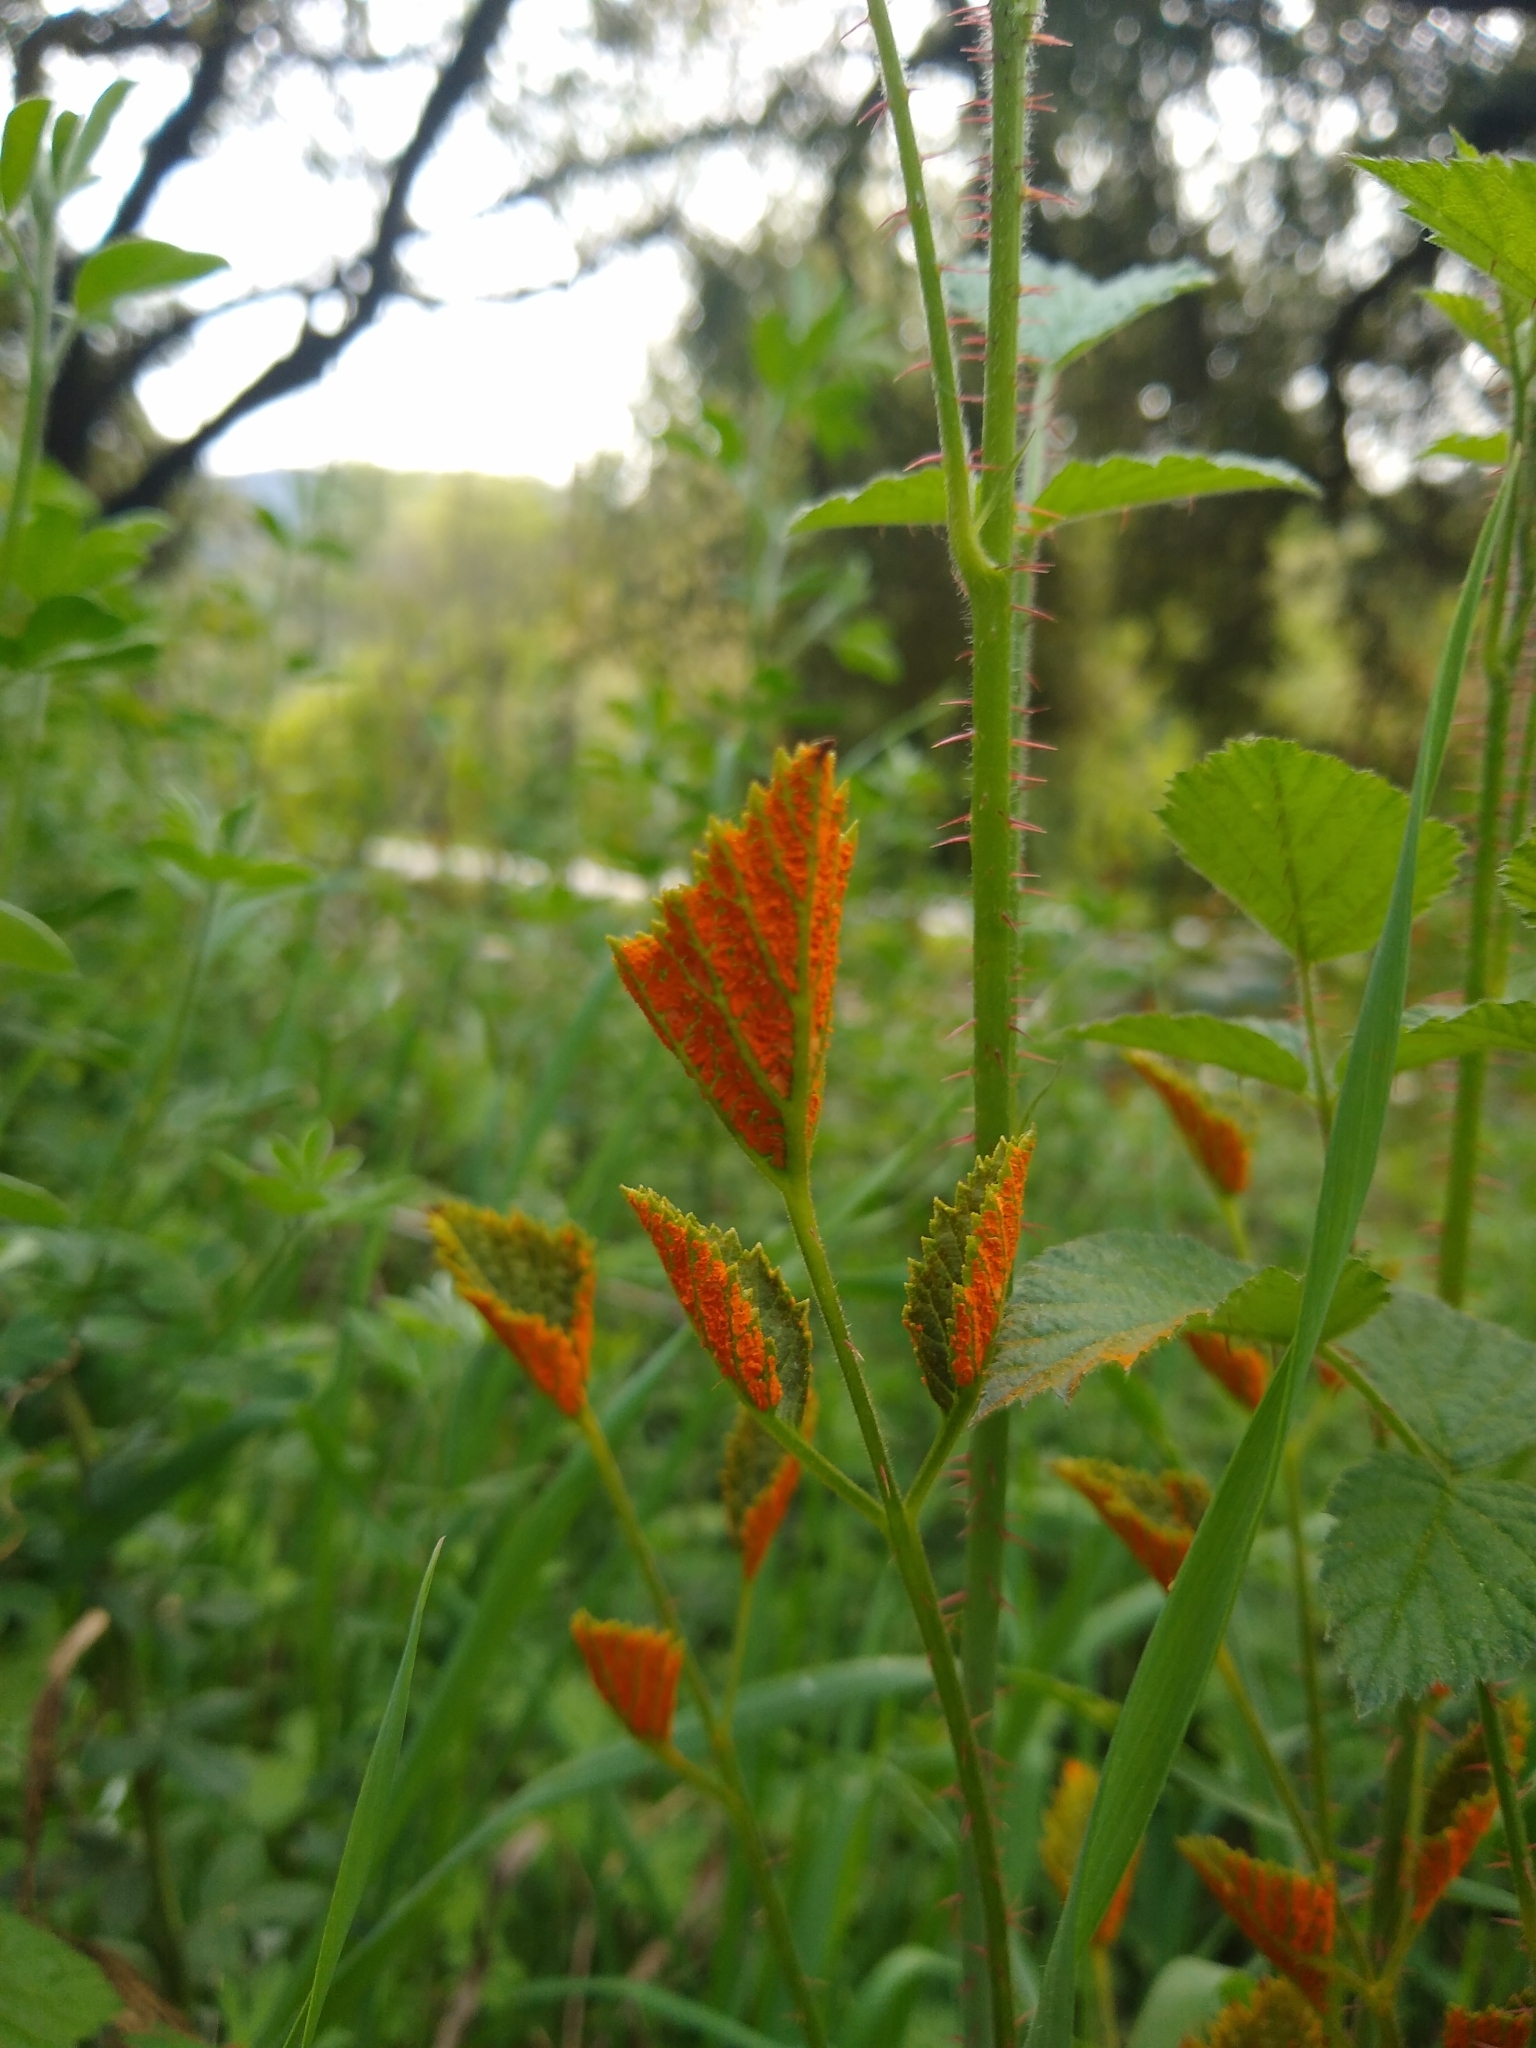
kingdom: Fungi
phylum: Basidiomycota
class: Pucciniomycetes
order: Pucciniales
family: Phragmidiaceae
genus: Arthuriomyces
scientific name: Arthuriomyces peckianus
